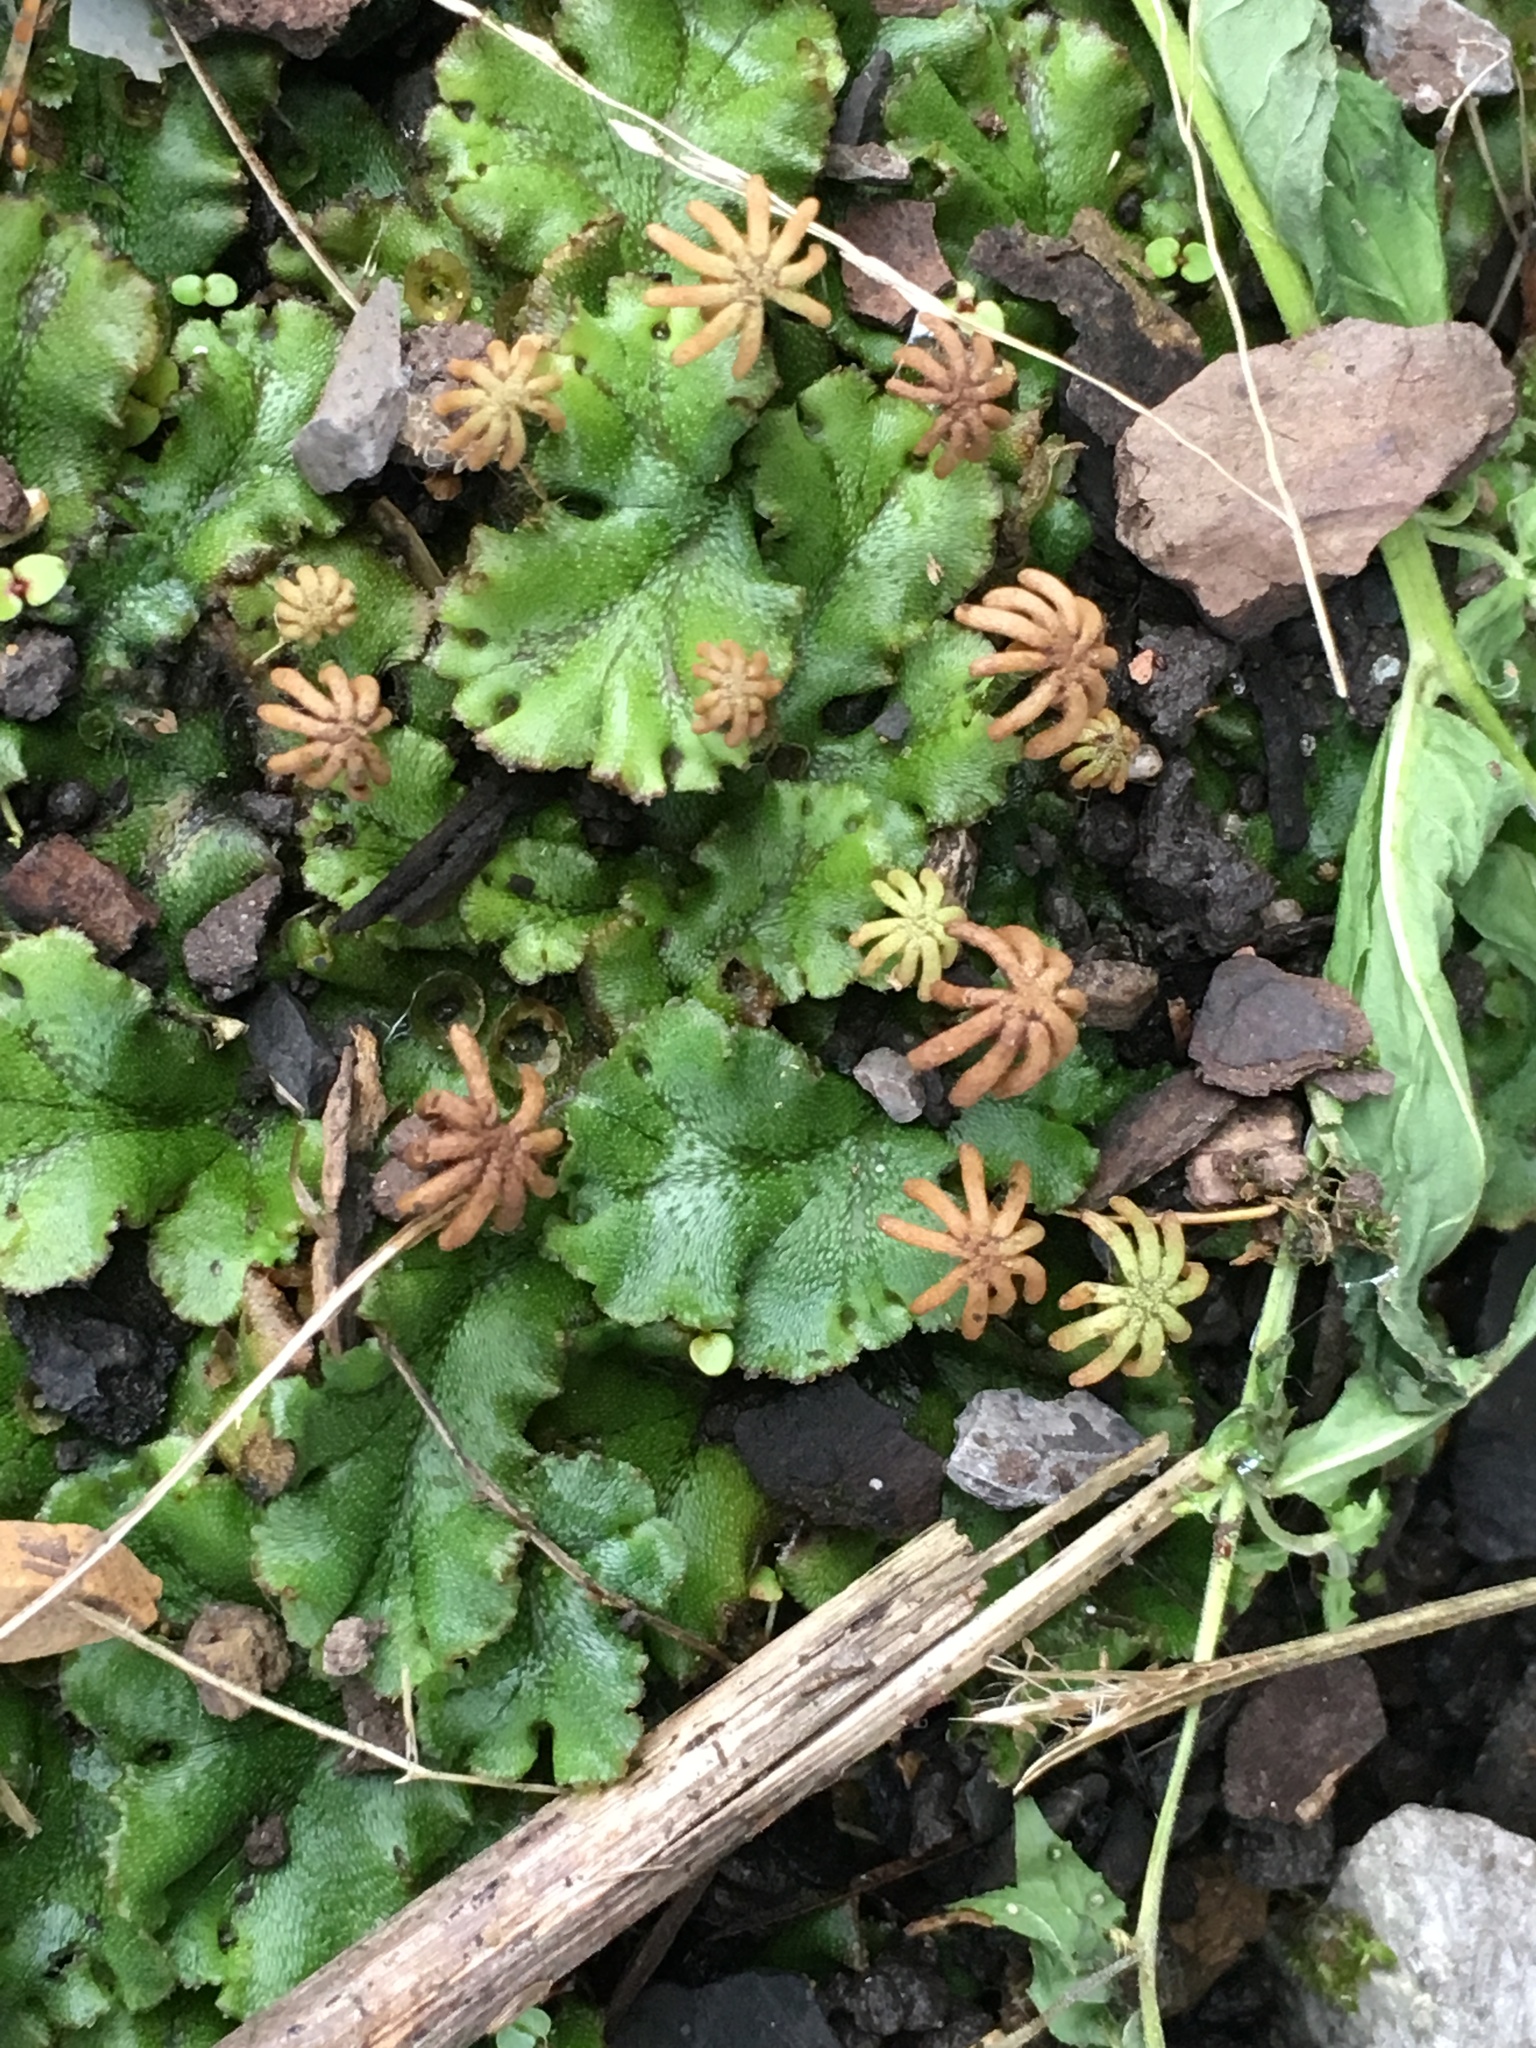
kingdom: Plantae
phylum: Marchantiophyta
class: Marchantiopsida
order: Marchantiales
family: Marchantiaceae
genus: Marchantia
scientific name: Marchantia polymorpha
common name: Common liverwort
